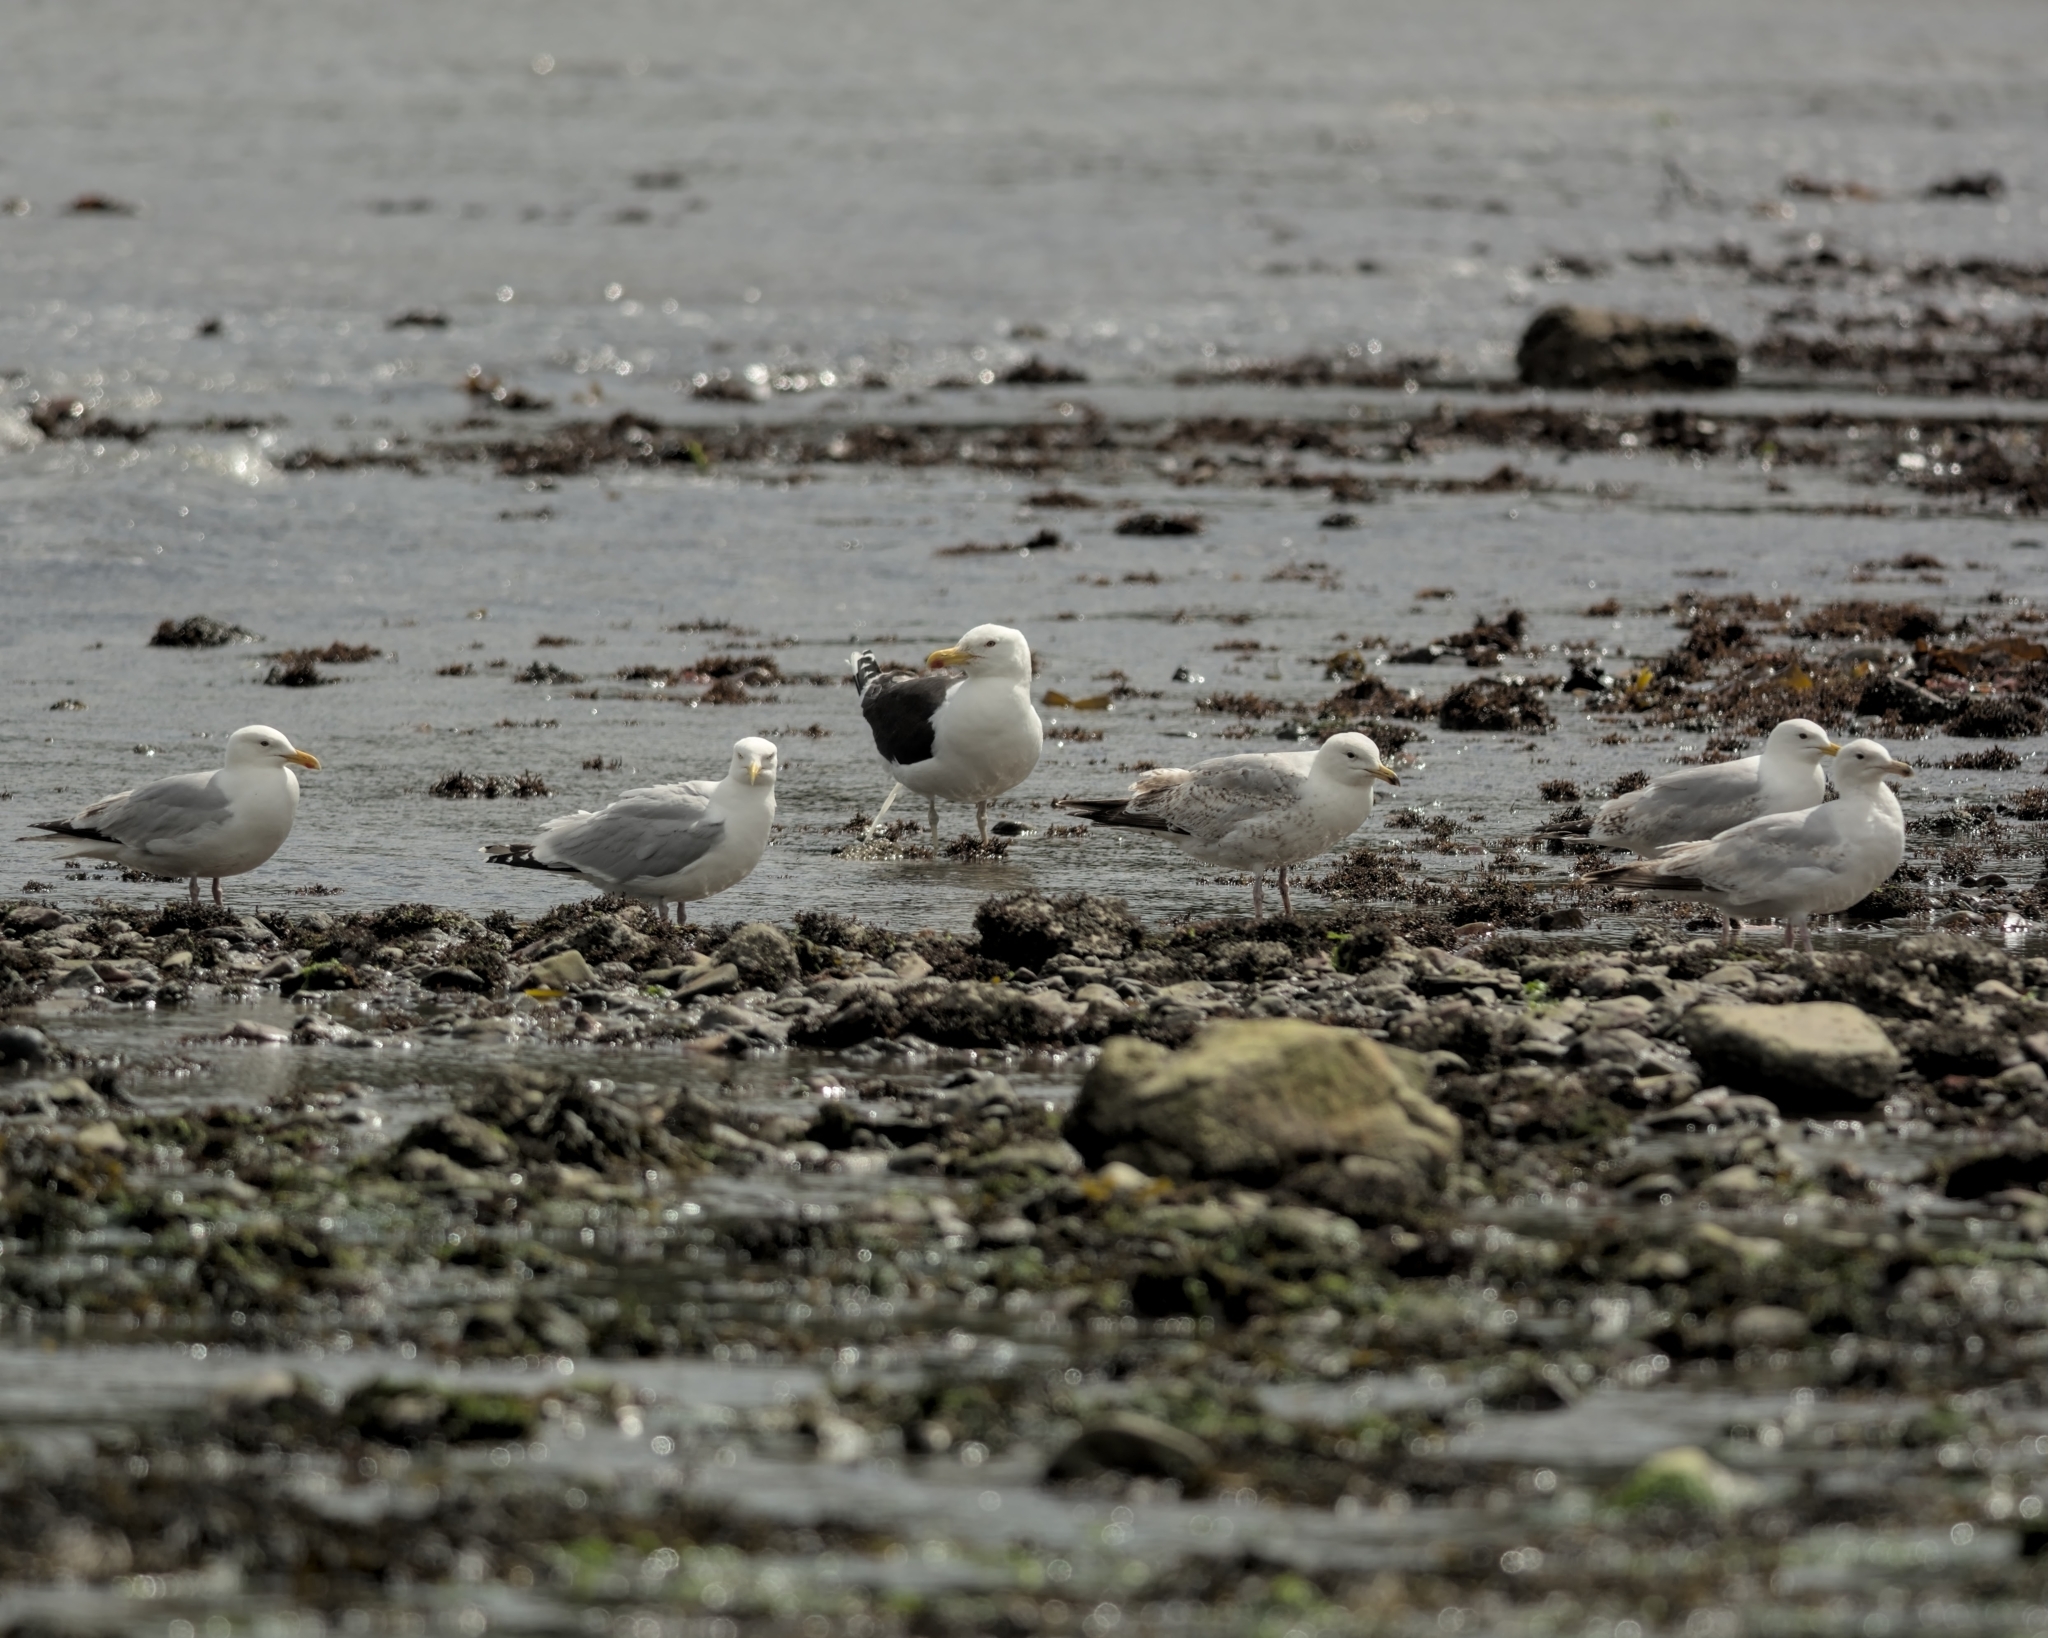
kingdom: Animalia
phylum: Chordata
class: Aves
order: Charadriiformes
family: Laridae
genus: Larus
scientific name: Larus marinus
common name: Great black-backed gull
